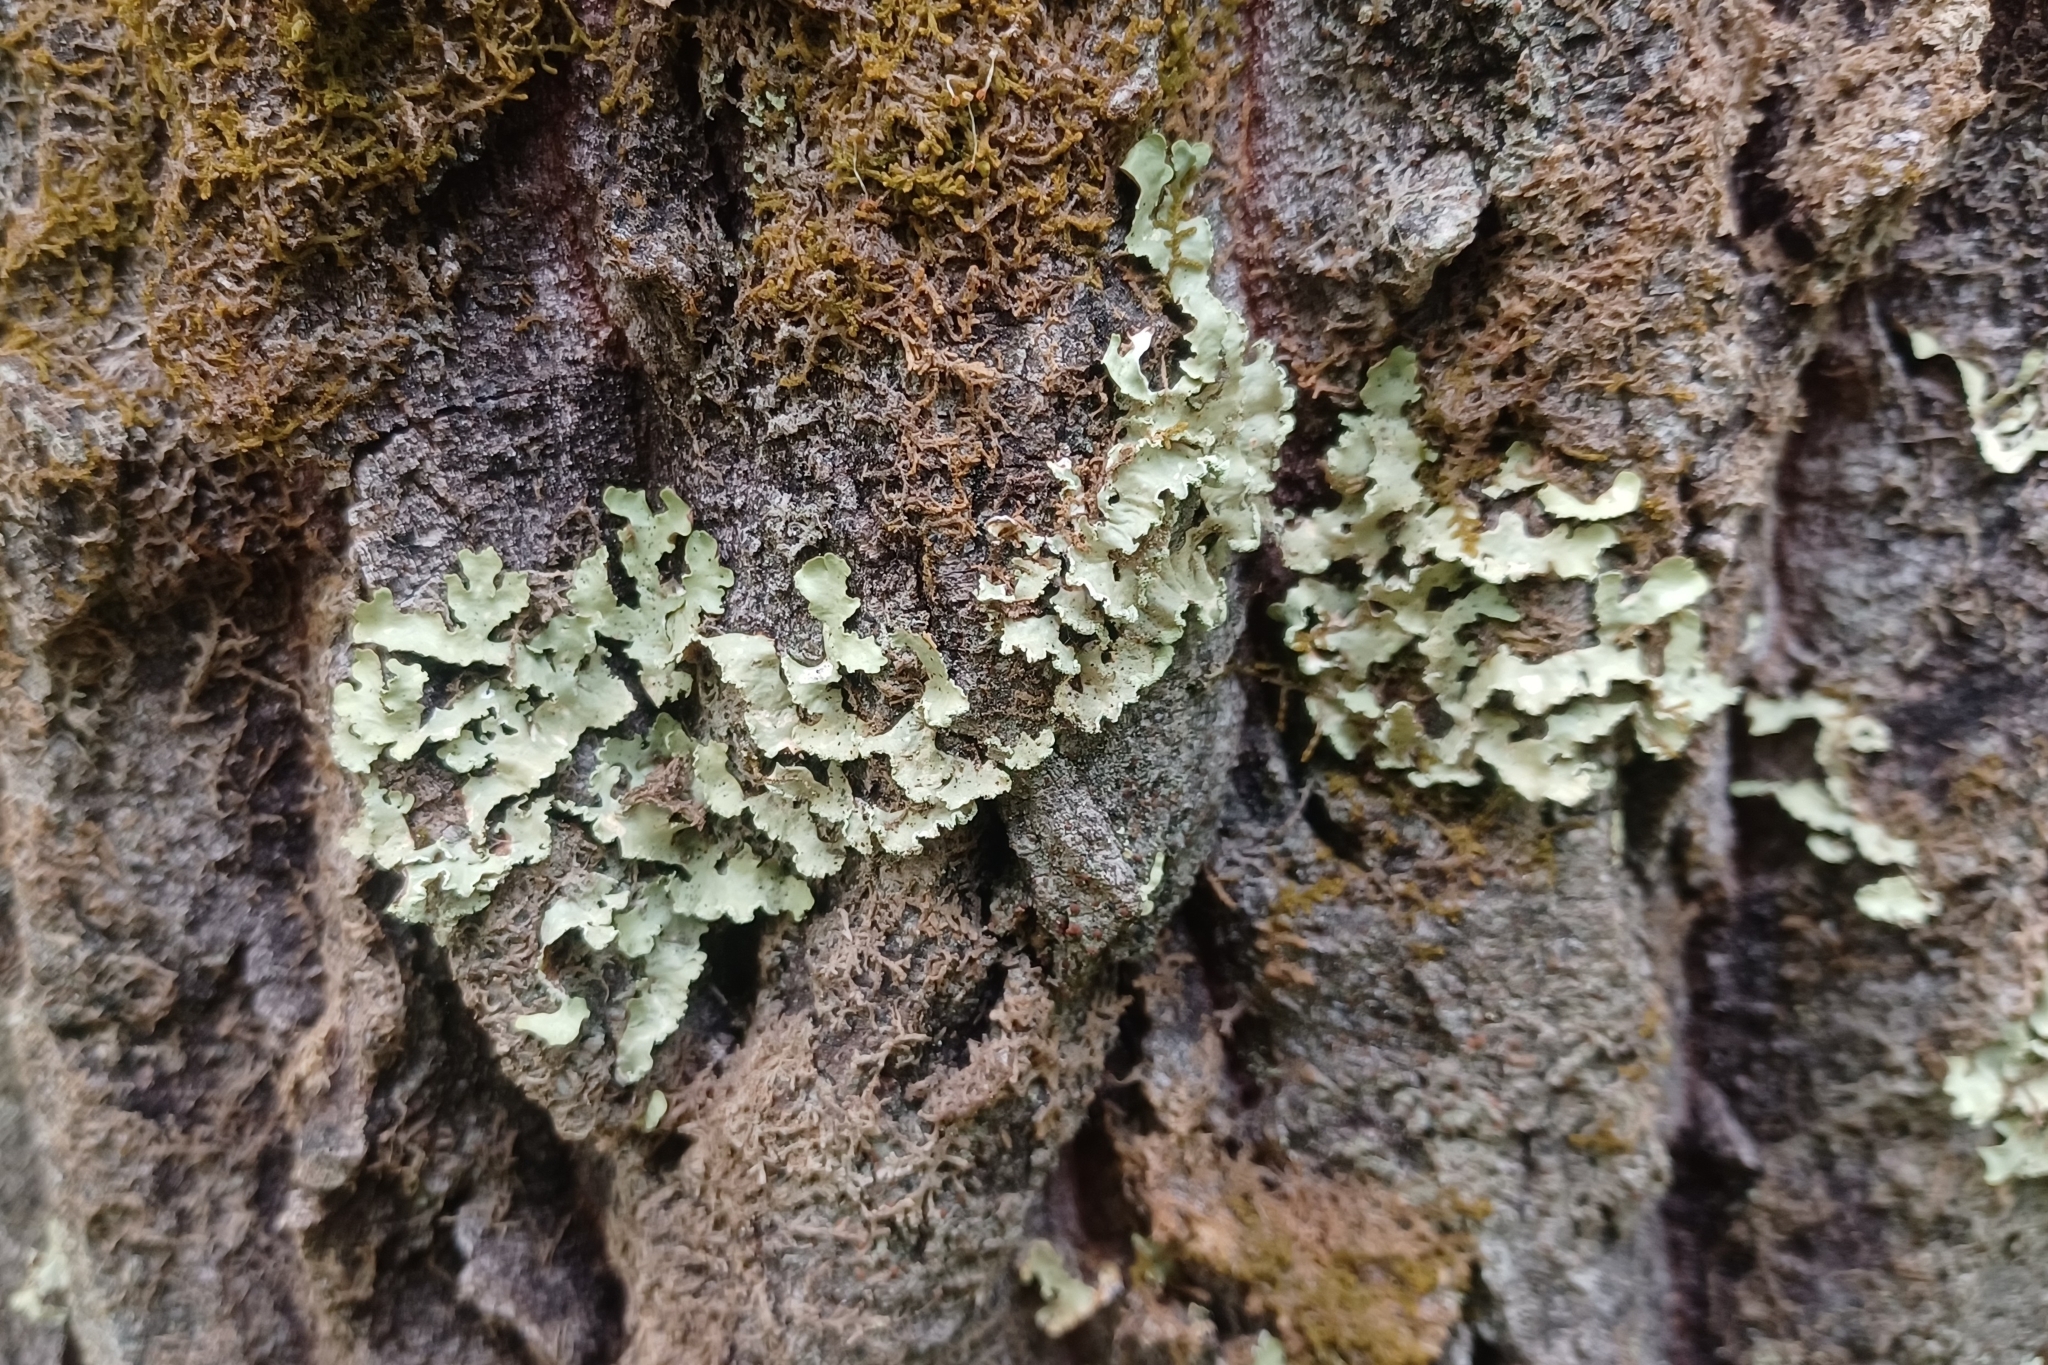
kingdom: Fungi
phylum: Ascomycota
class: Lecanoromycetes
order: Lecanorales
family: Parmeliaceae
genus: Usnocetraria
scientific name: Usnocetraria oakesiana
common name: Yellow ribbon lichen
